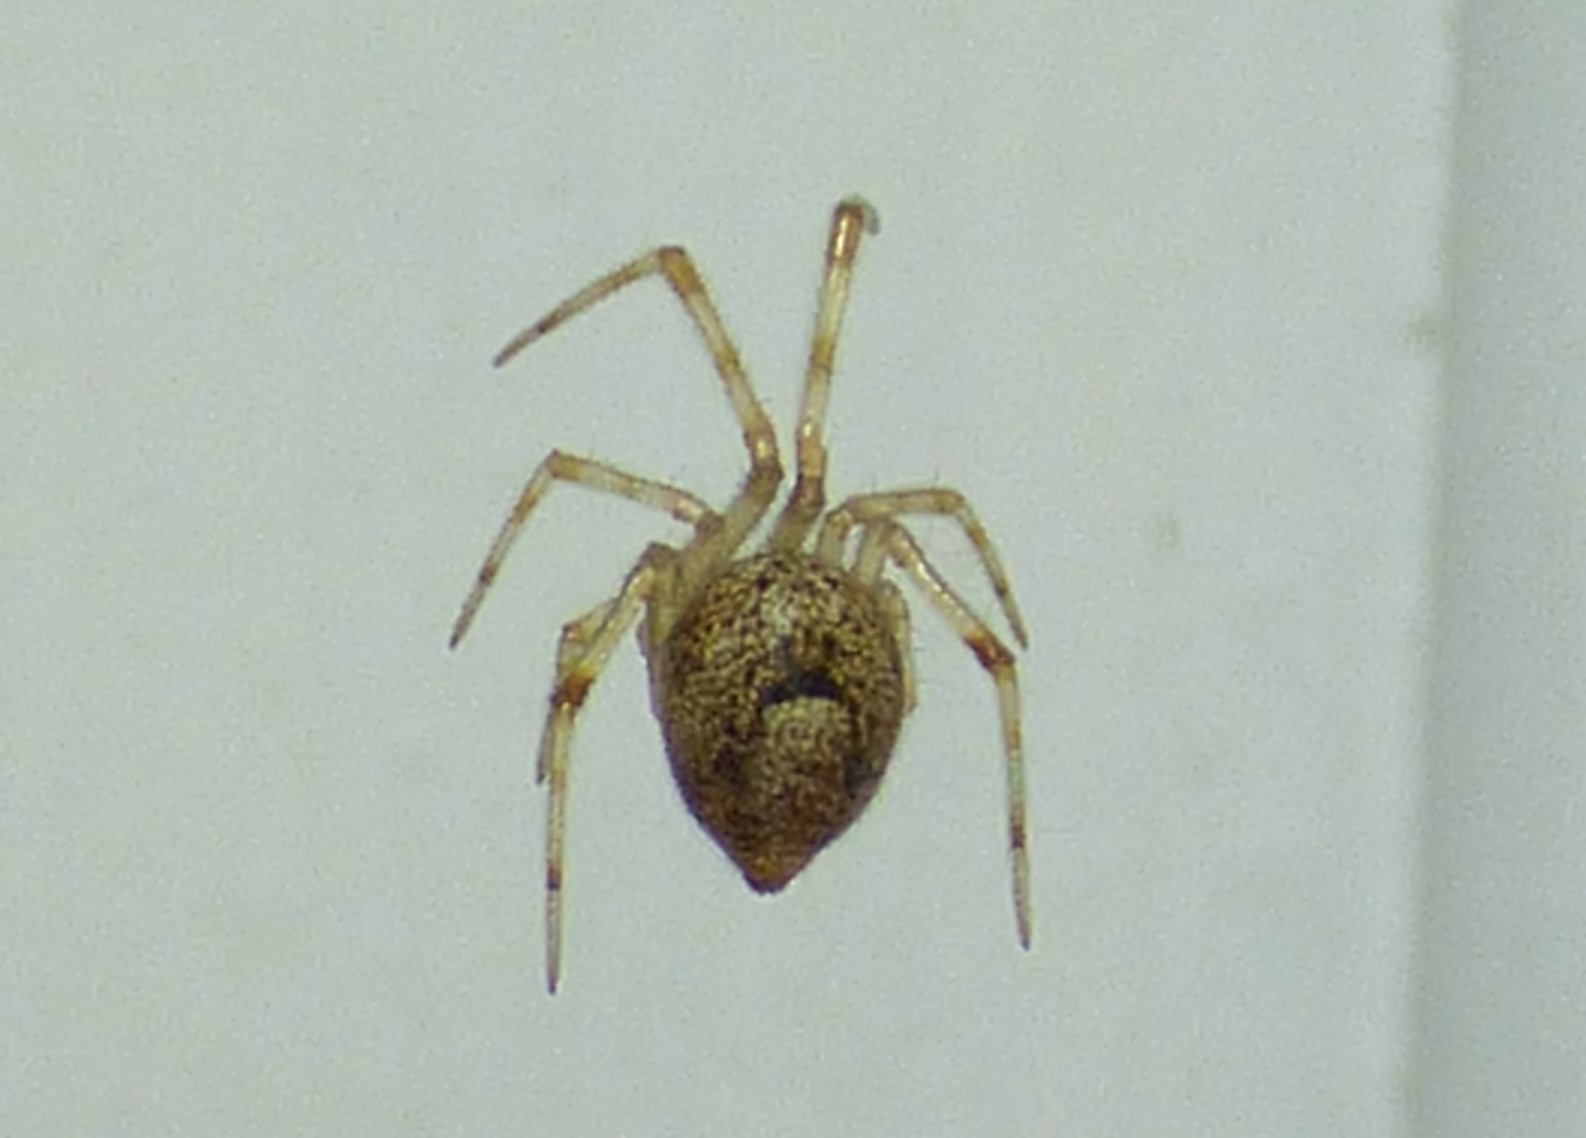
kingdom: Animalia
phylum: Arthropoda
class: Arachnida
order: Araneae
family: Theridiidae
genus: Parasteatoda
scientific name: Parasteatoda tepidariorum
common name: Common house spider
